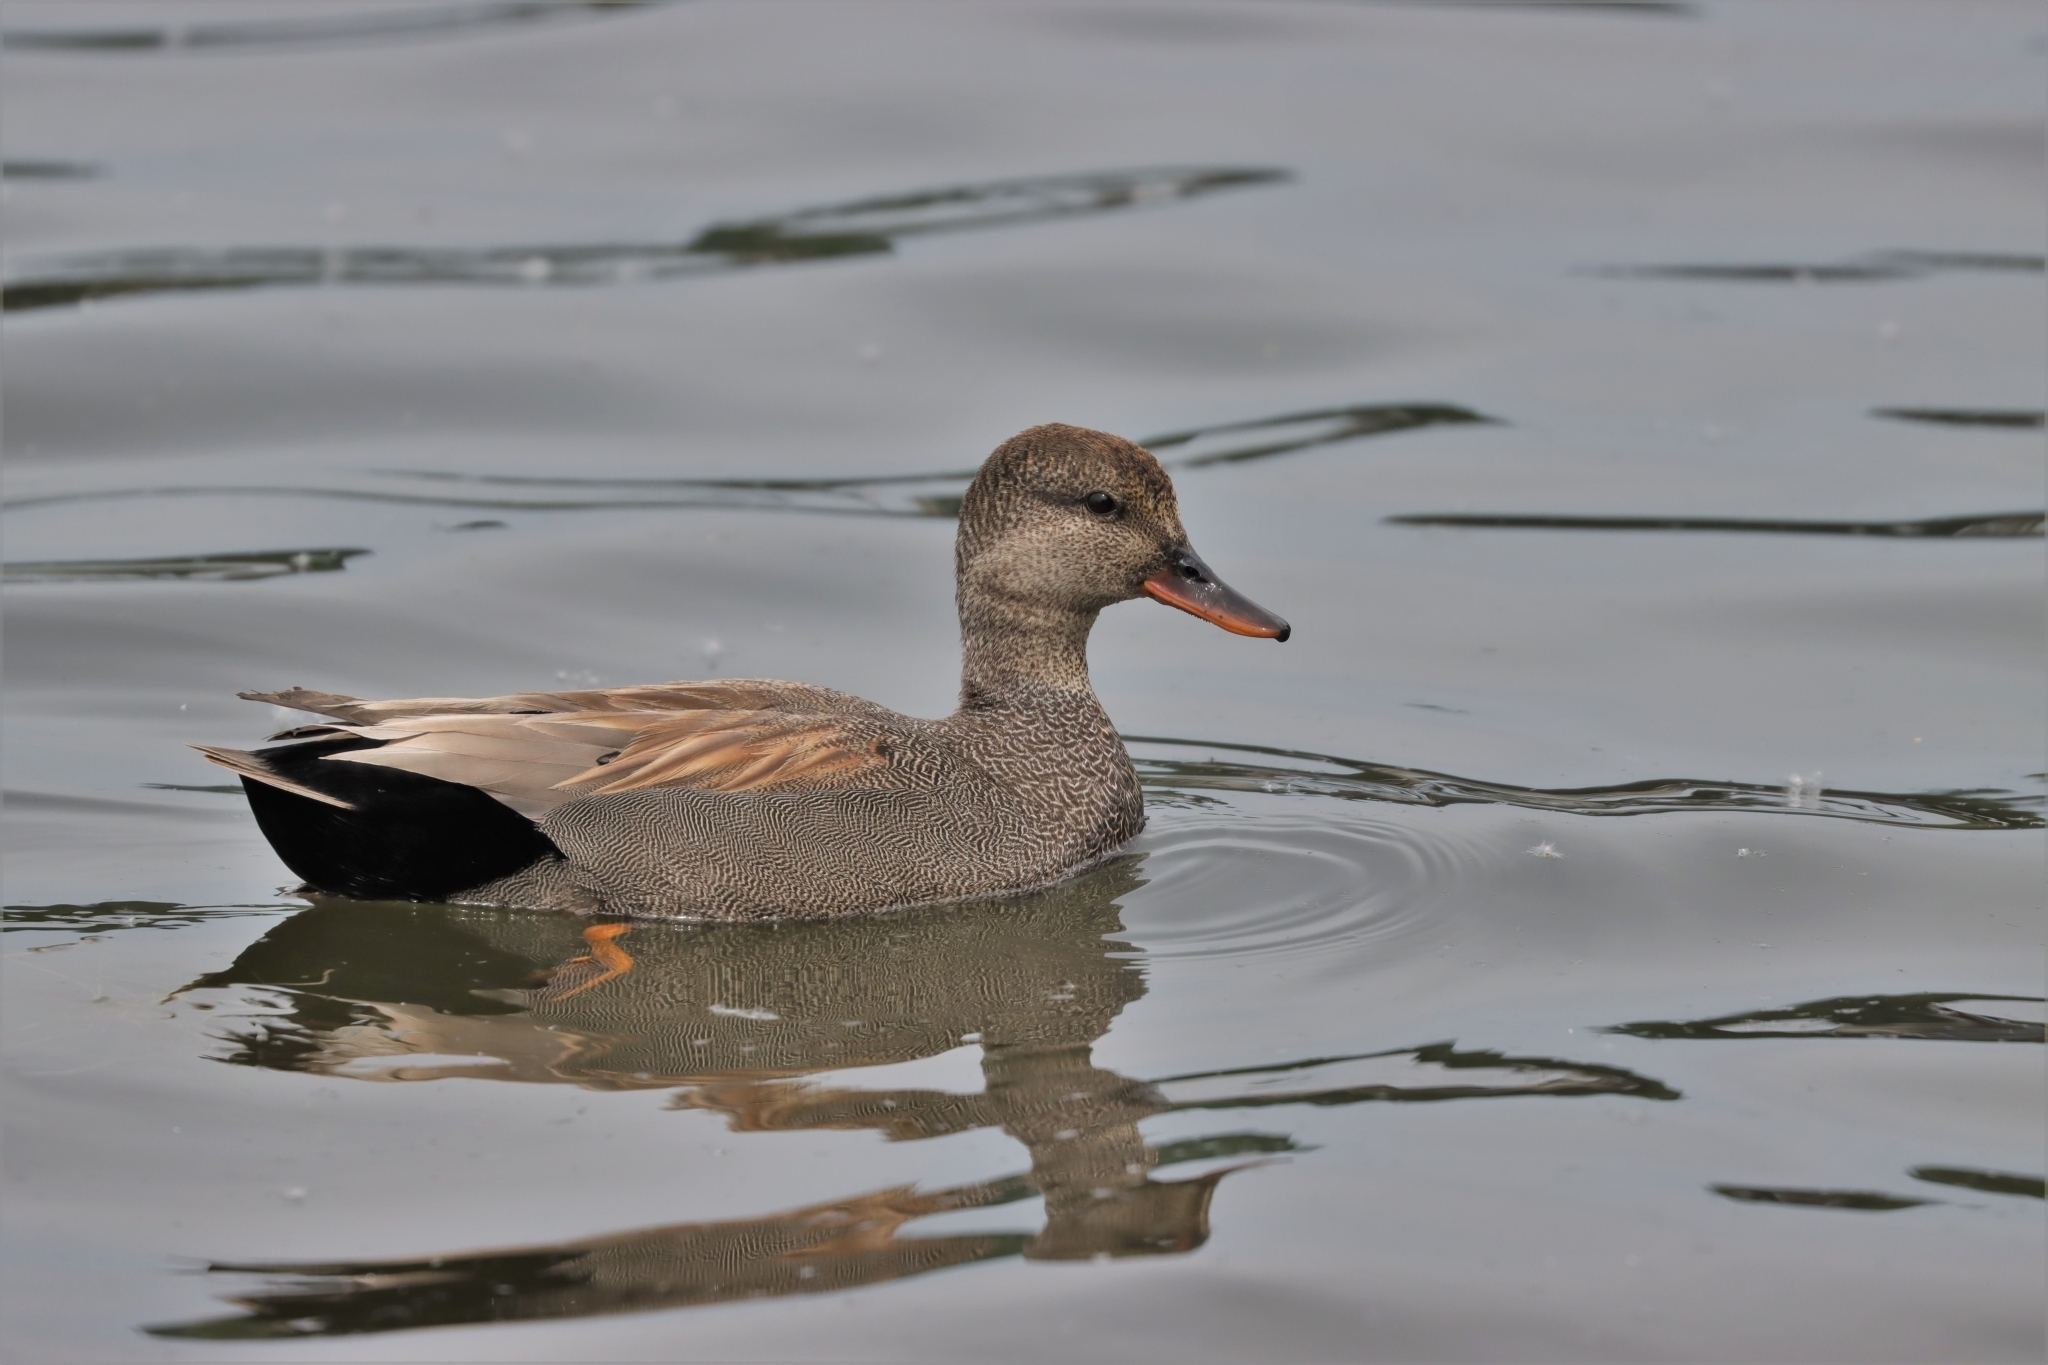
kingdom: Animalia
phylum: Chordata
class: Aves
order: Anseriformes
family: Anatidae
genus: Mareca
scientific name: Mareca strepera
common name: Gadwall
